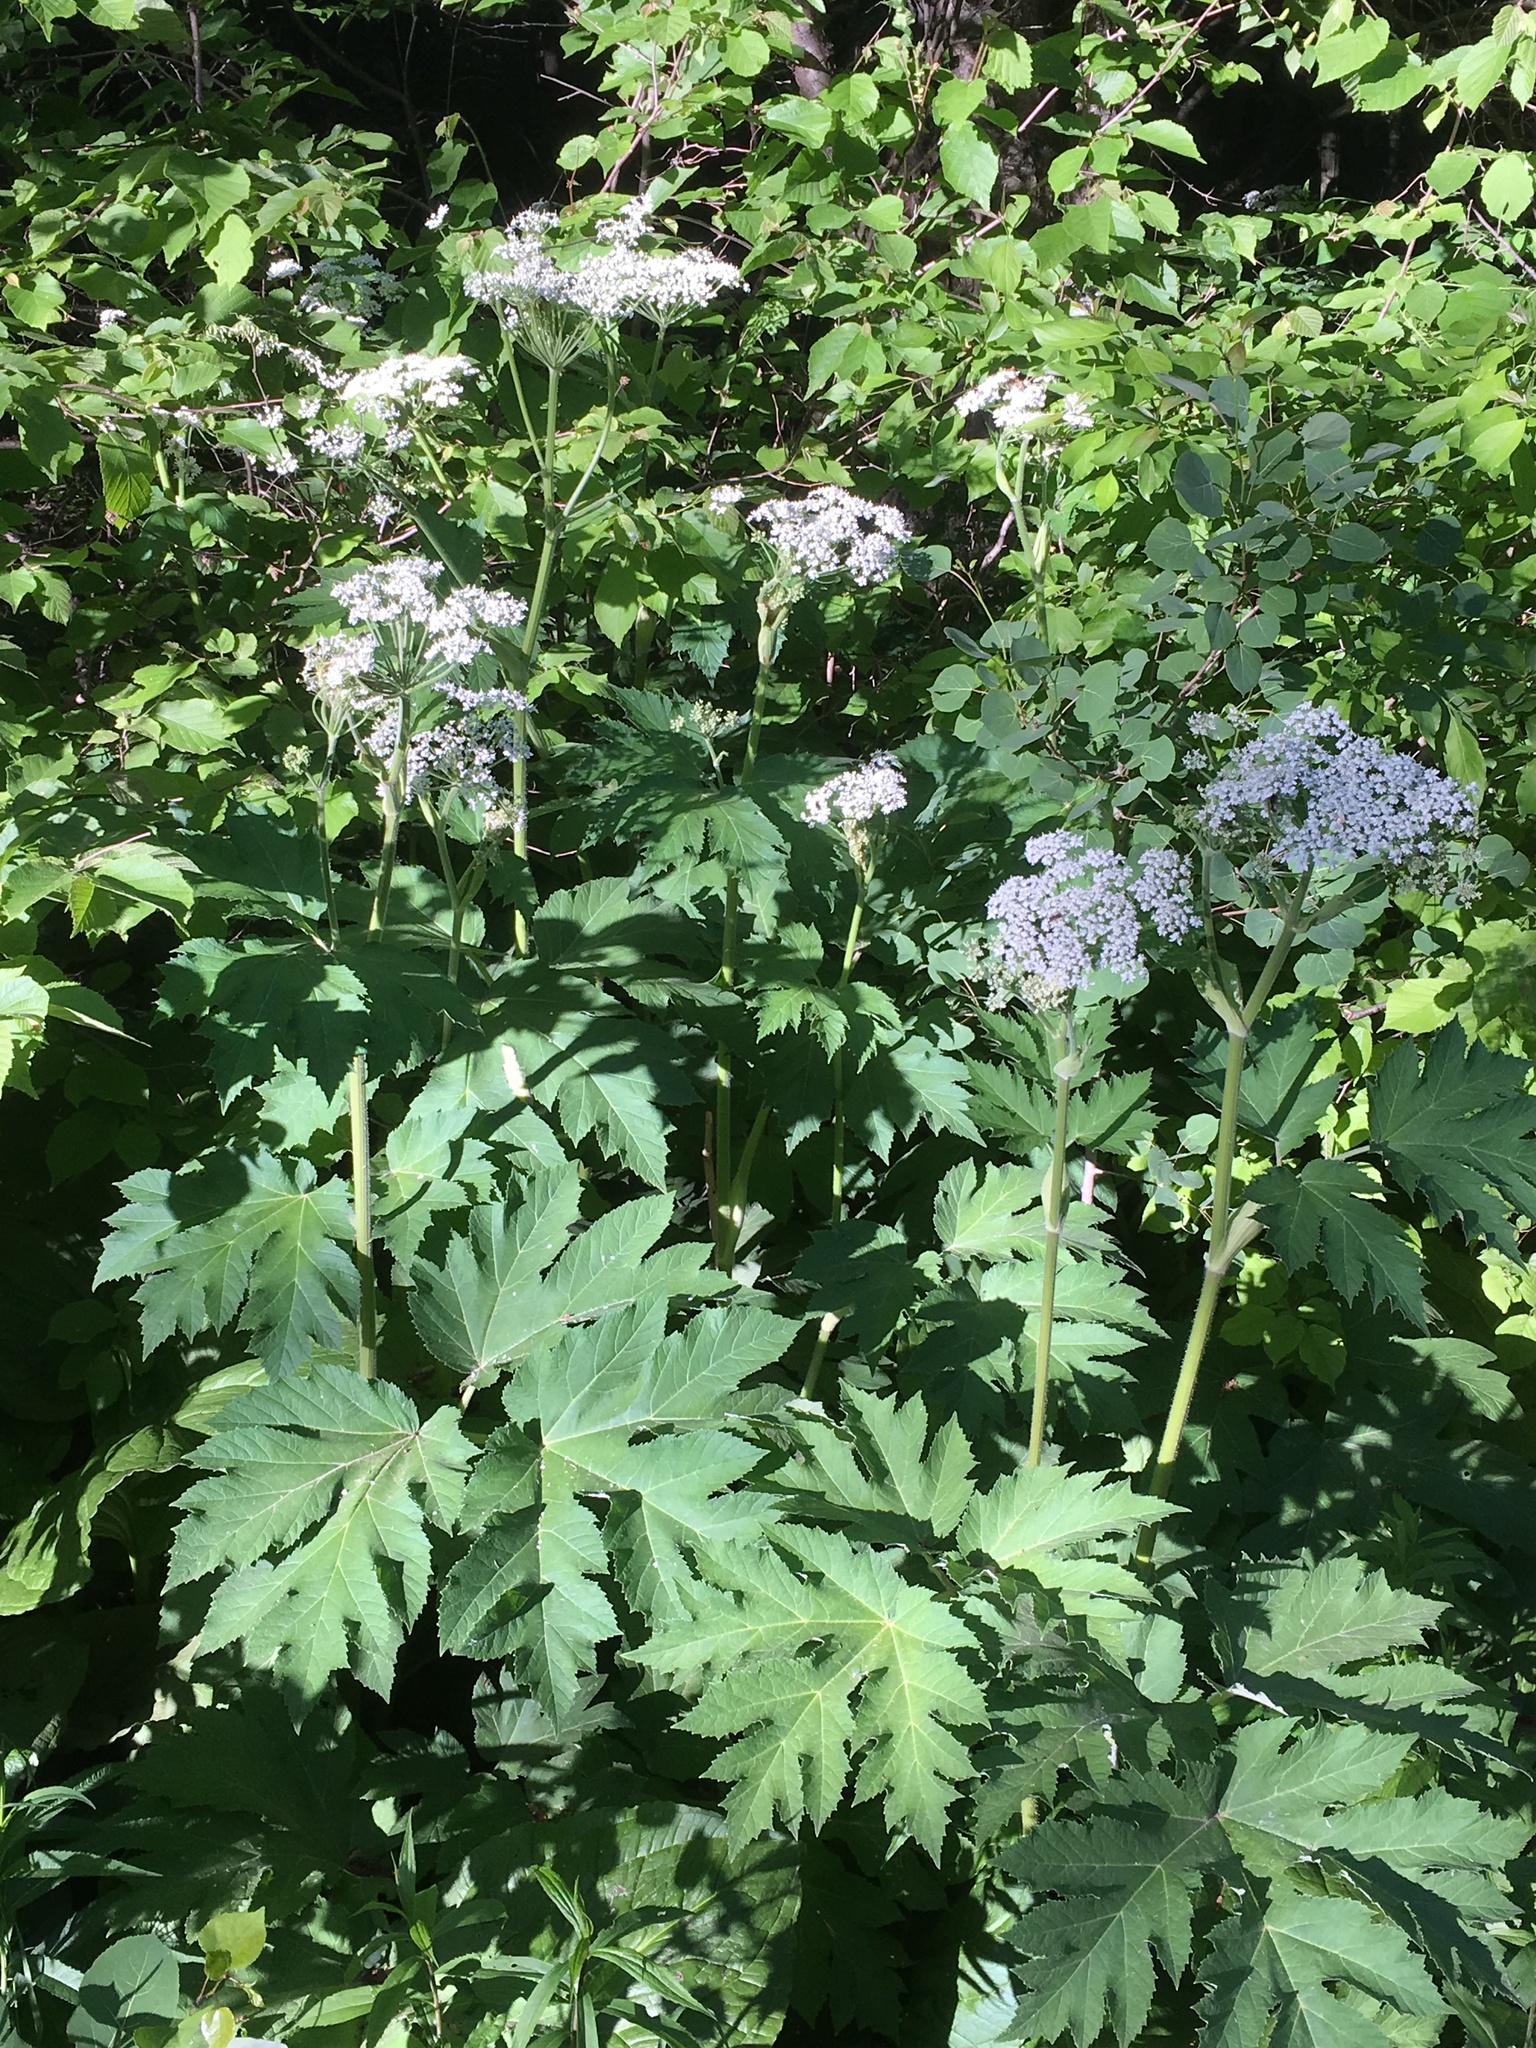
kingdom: Plantae
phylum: Tracheophyta
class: Magnoliopsida
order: Apiales
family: Apiaceae
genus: Heracleum
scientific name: Heracleum maximum
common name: American cow parsnip
